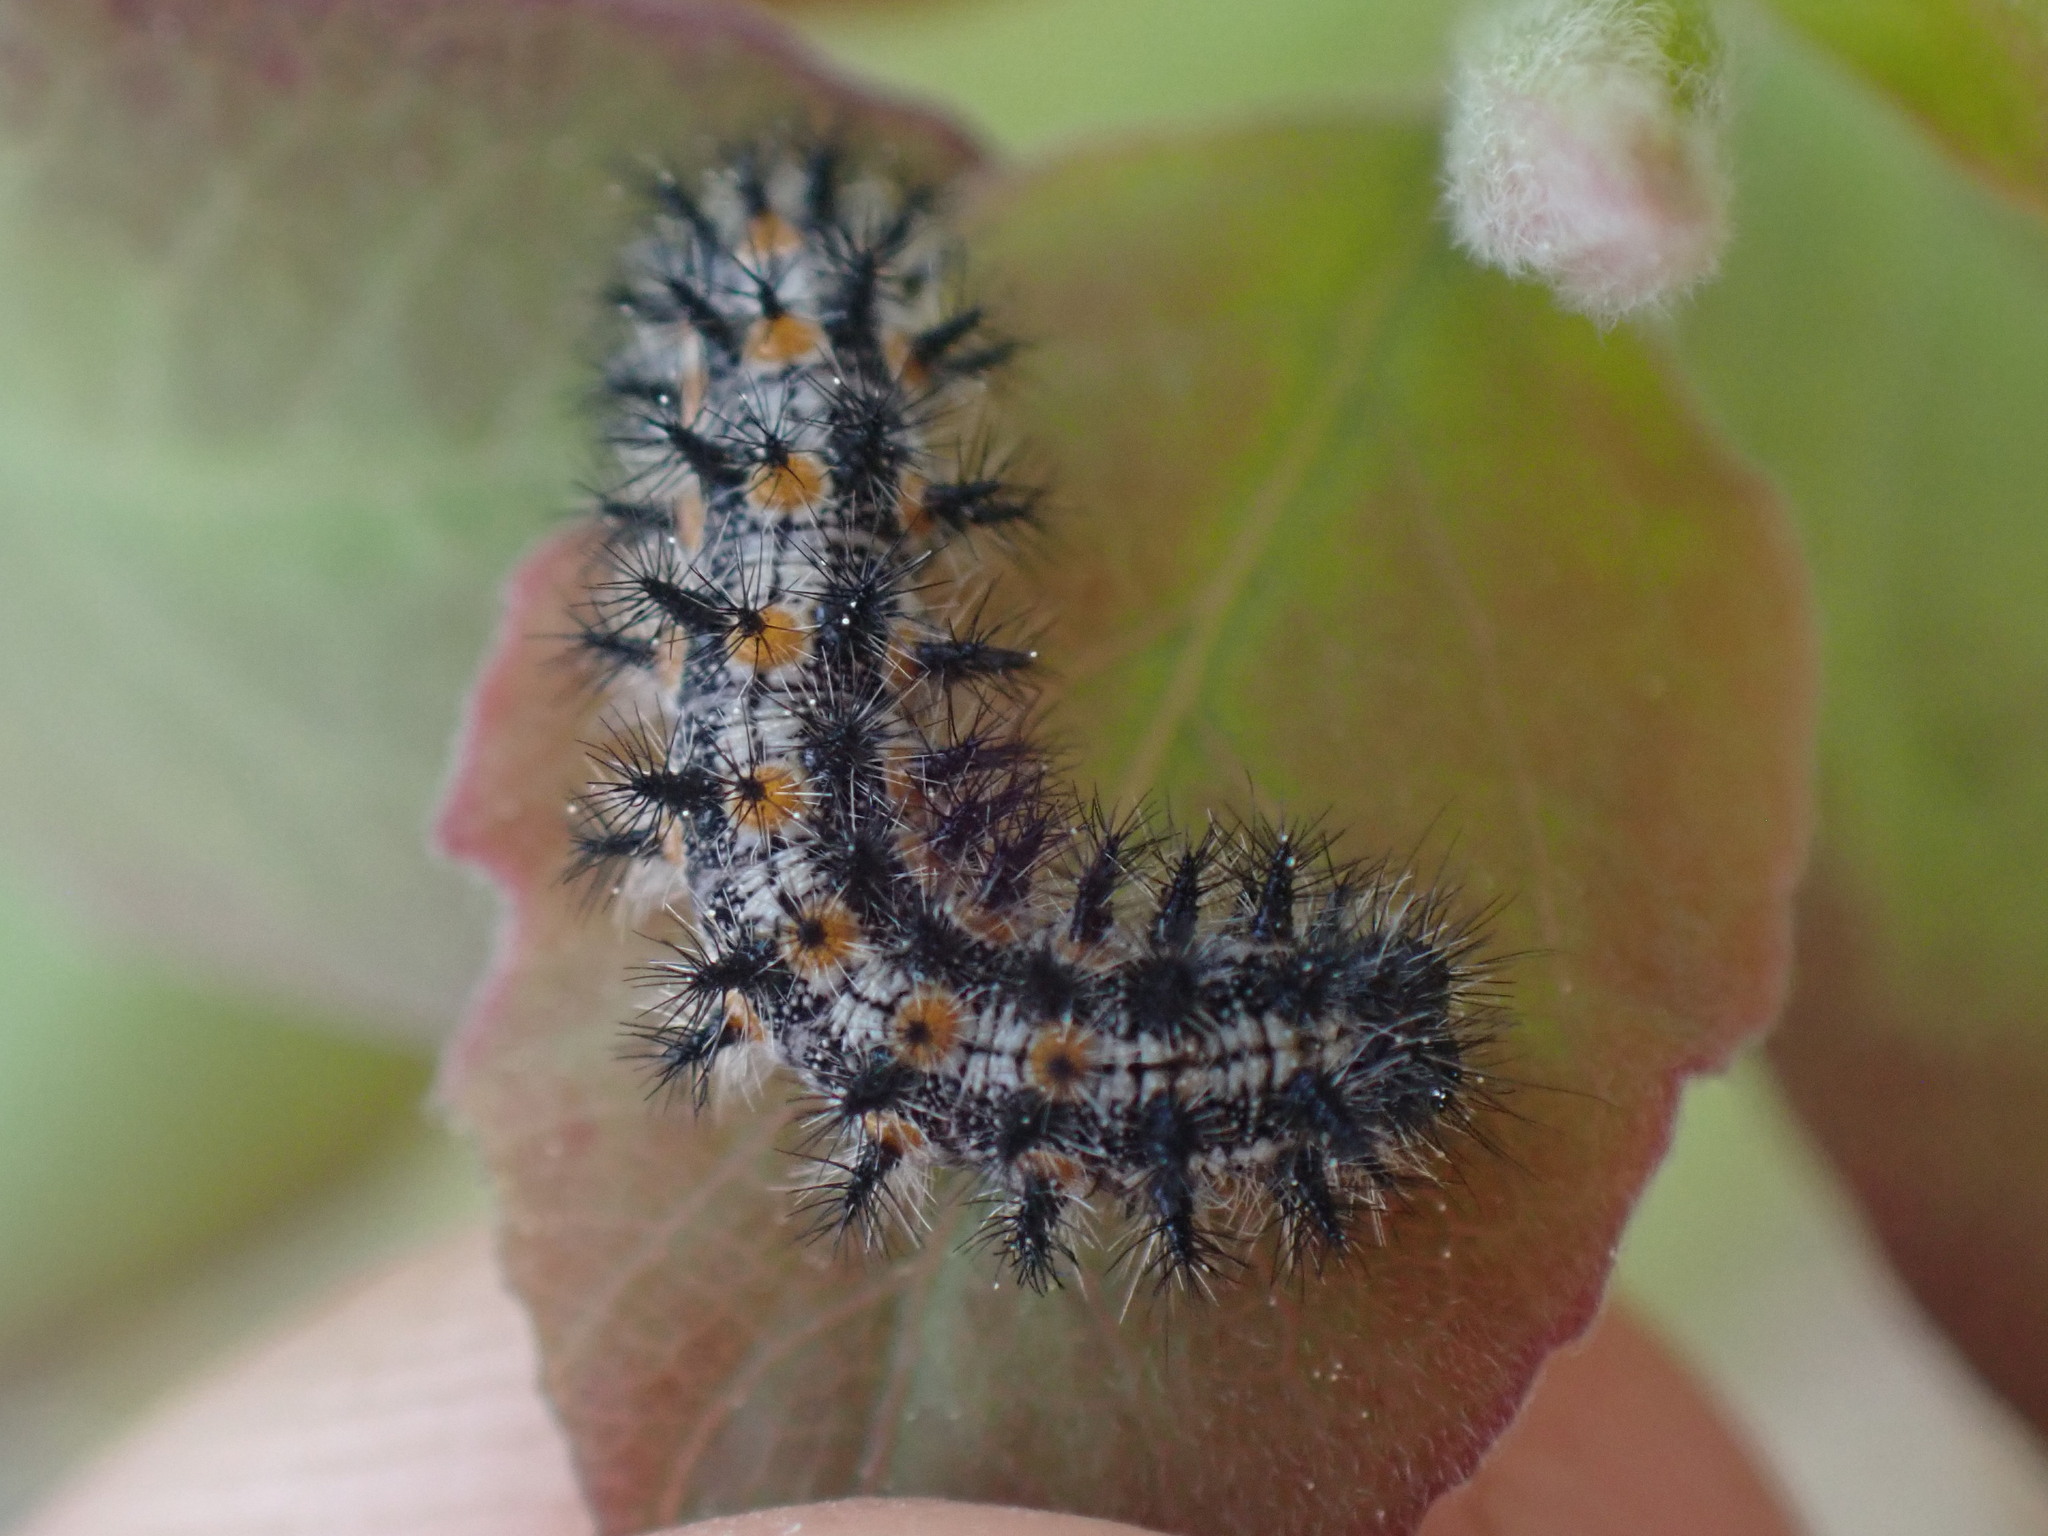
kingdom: Animalia
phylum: Arthropoda
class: Insecta
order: Lepidoptera
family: Nymphalidae
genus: Occidryas
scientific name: Occidryas anicia
